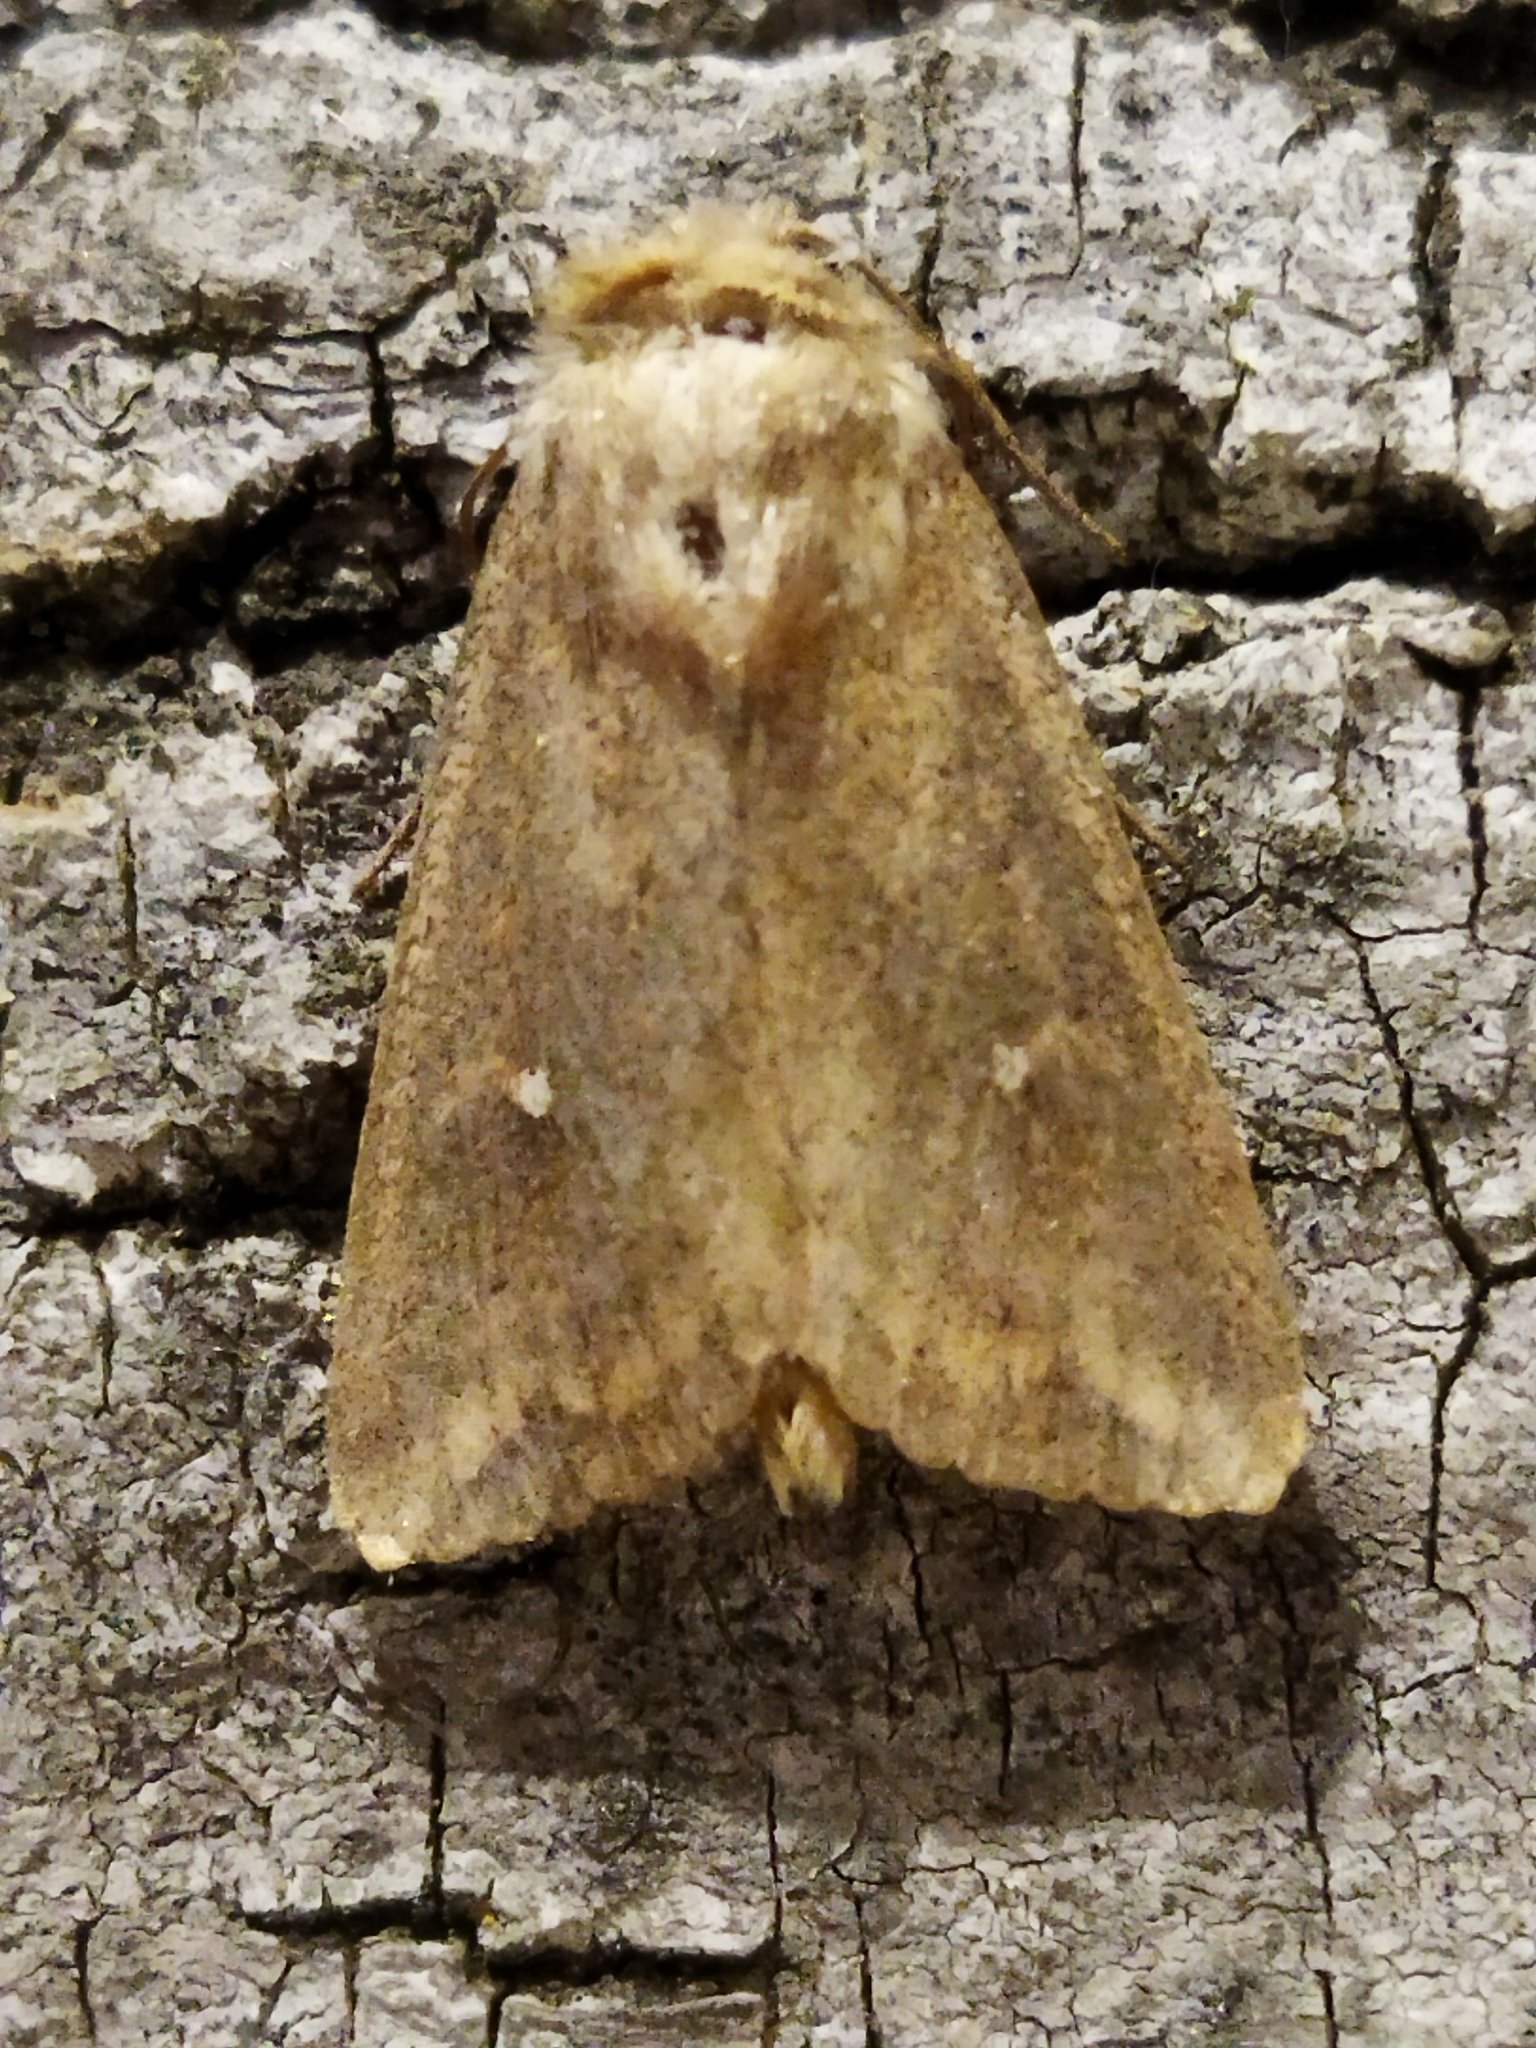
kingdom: Animalia
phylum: Arthropoda
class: Insecta
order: Lepidoptera
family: Noctuidae
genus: Mythimna
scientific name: Mythimna albipuncta
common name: White-point
